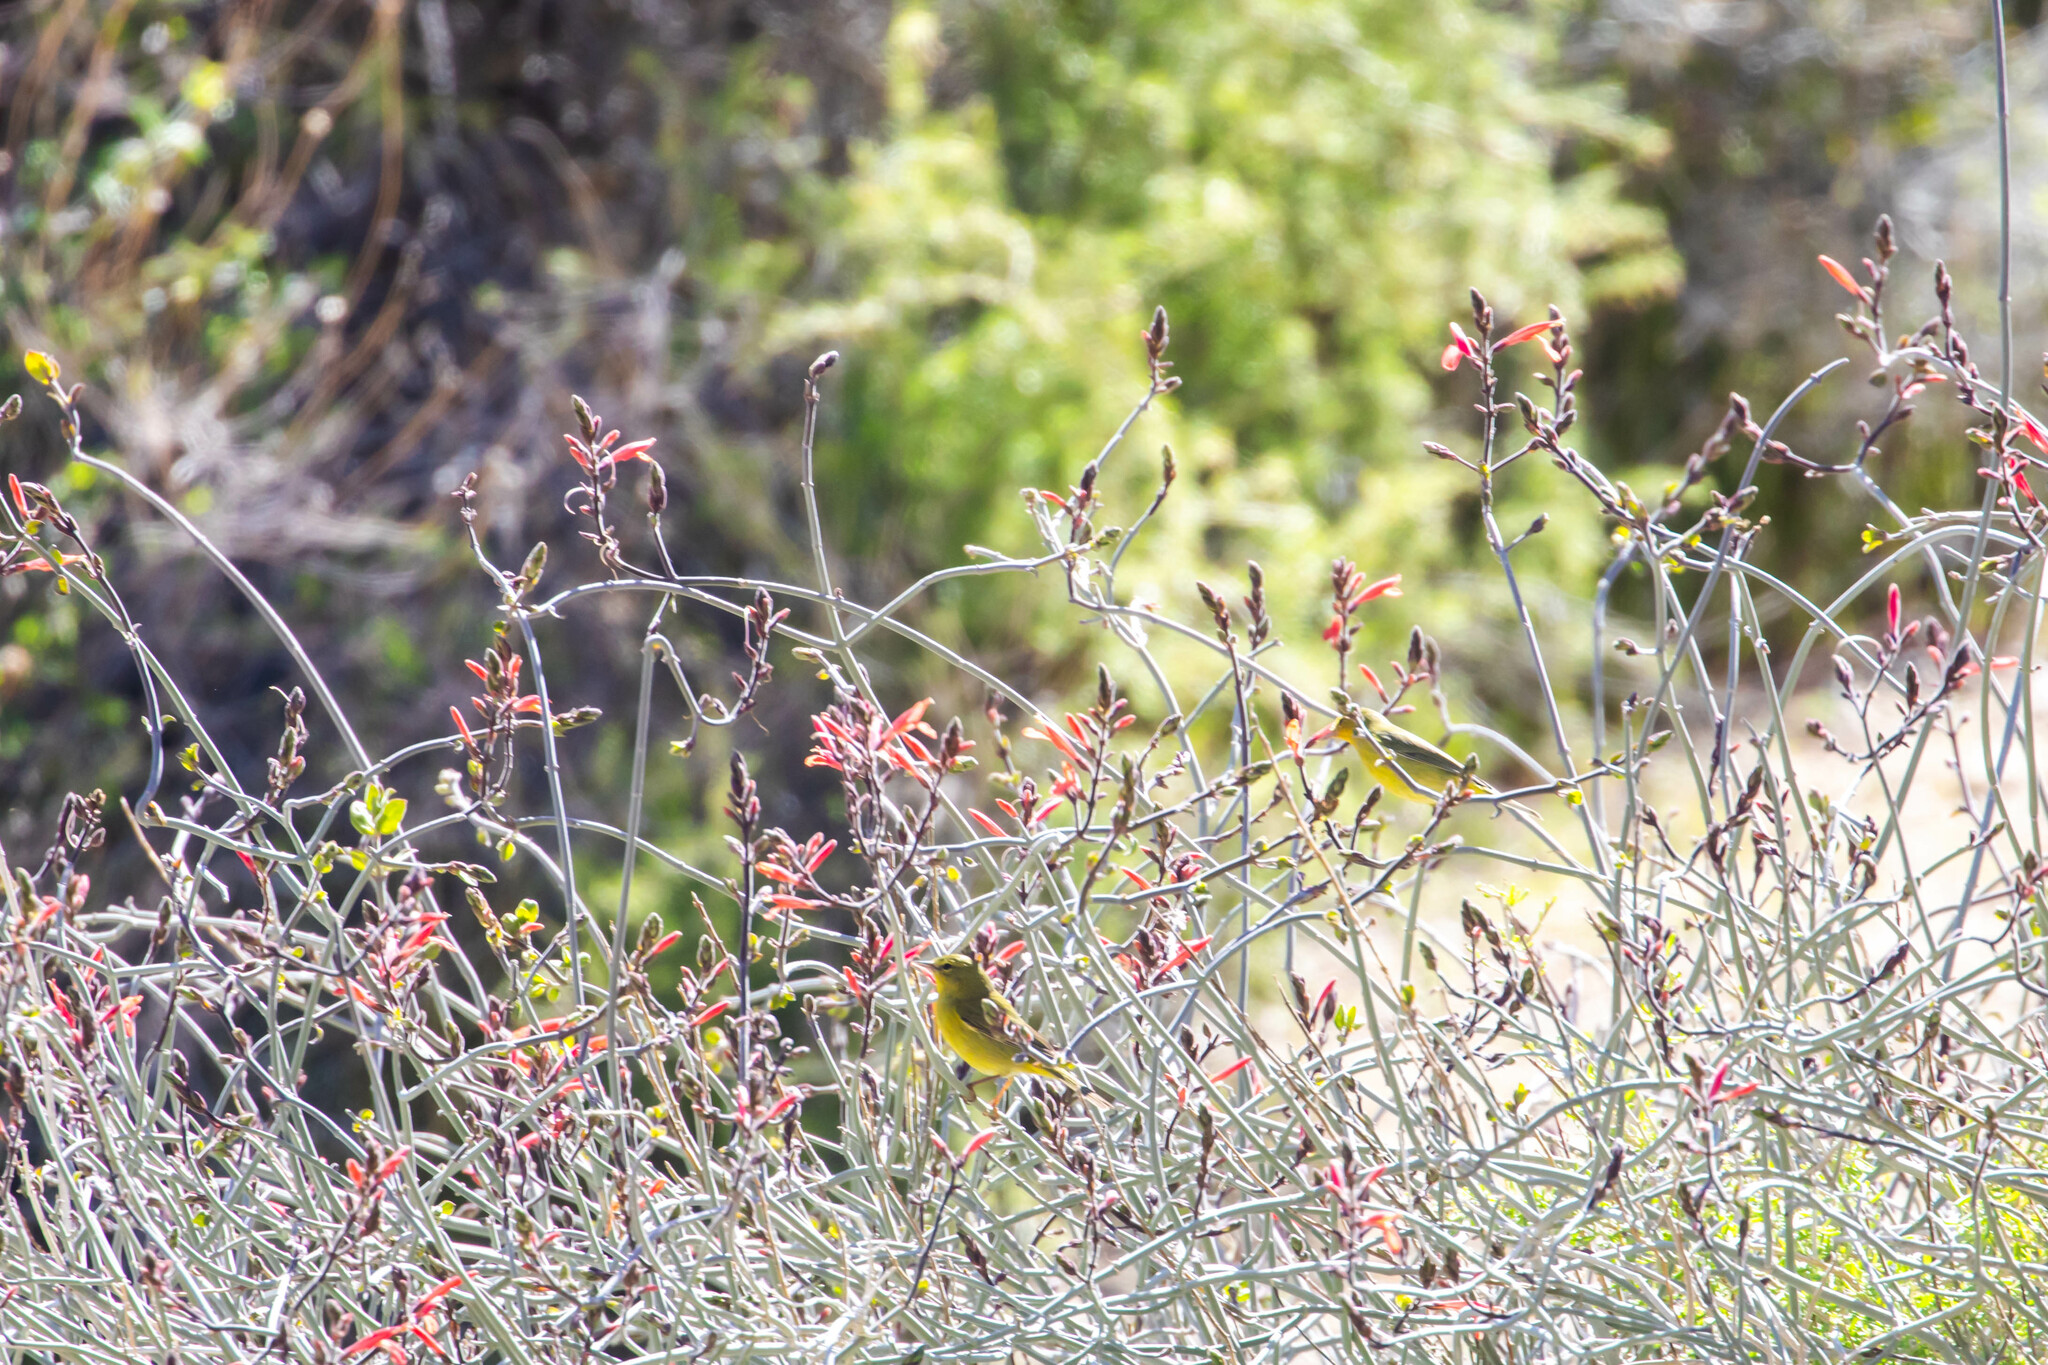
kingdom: Animalia
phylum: Chordata
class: Aves
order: Passeriformes
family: Parulidae
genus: Leiothlypis
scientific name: Leiothlypis celata
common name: Orange-crowned warbler
